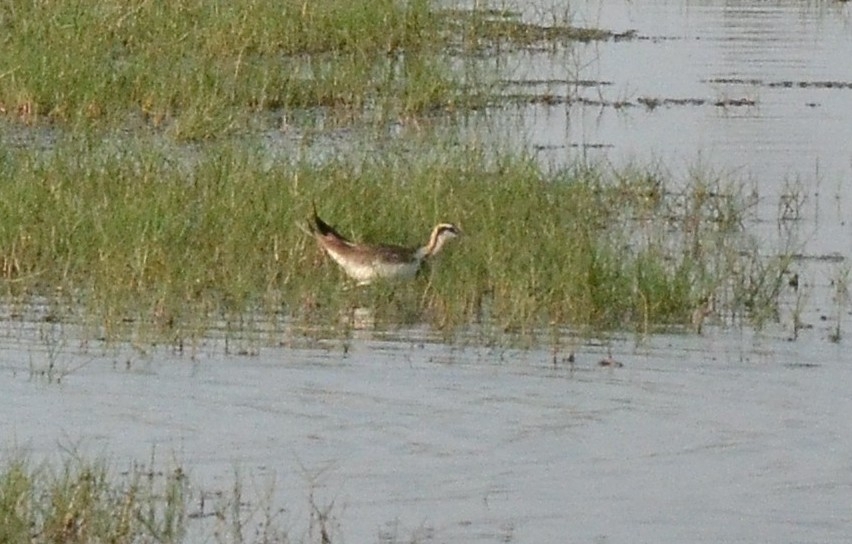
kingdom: Animalia
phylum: Chordata
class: Aves
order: Charadriiformes
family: Jacanidae
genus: Hydrophasianus
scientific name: Hydrophasianus chirurgus
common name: Pheasant-tailed jacana
